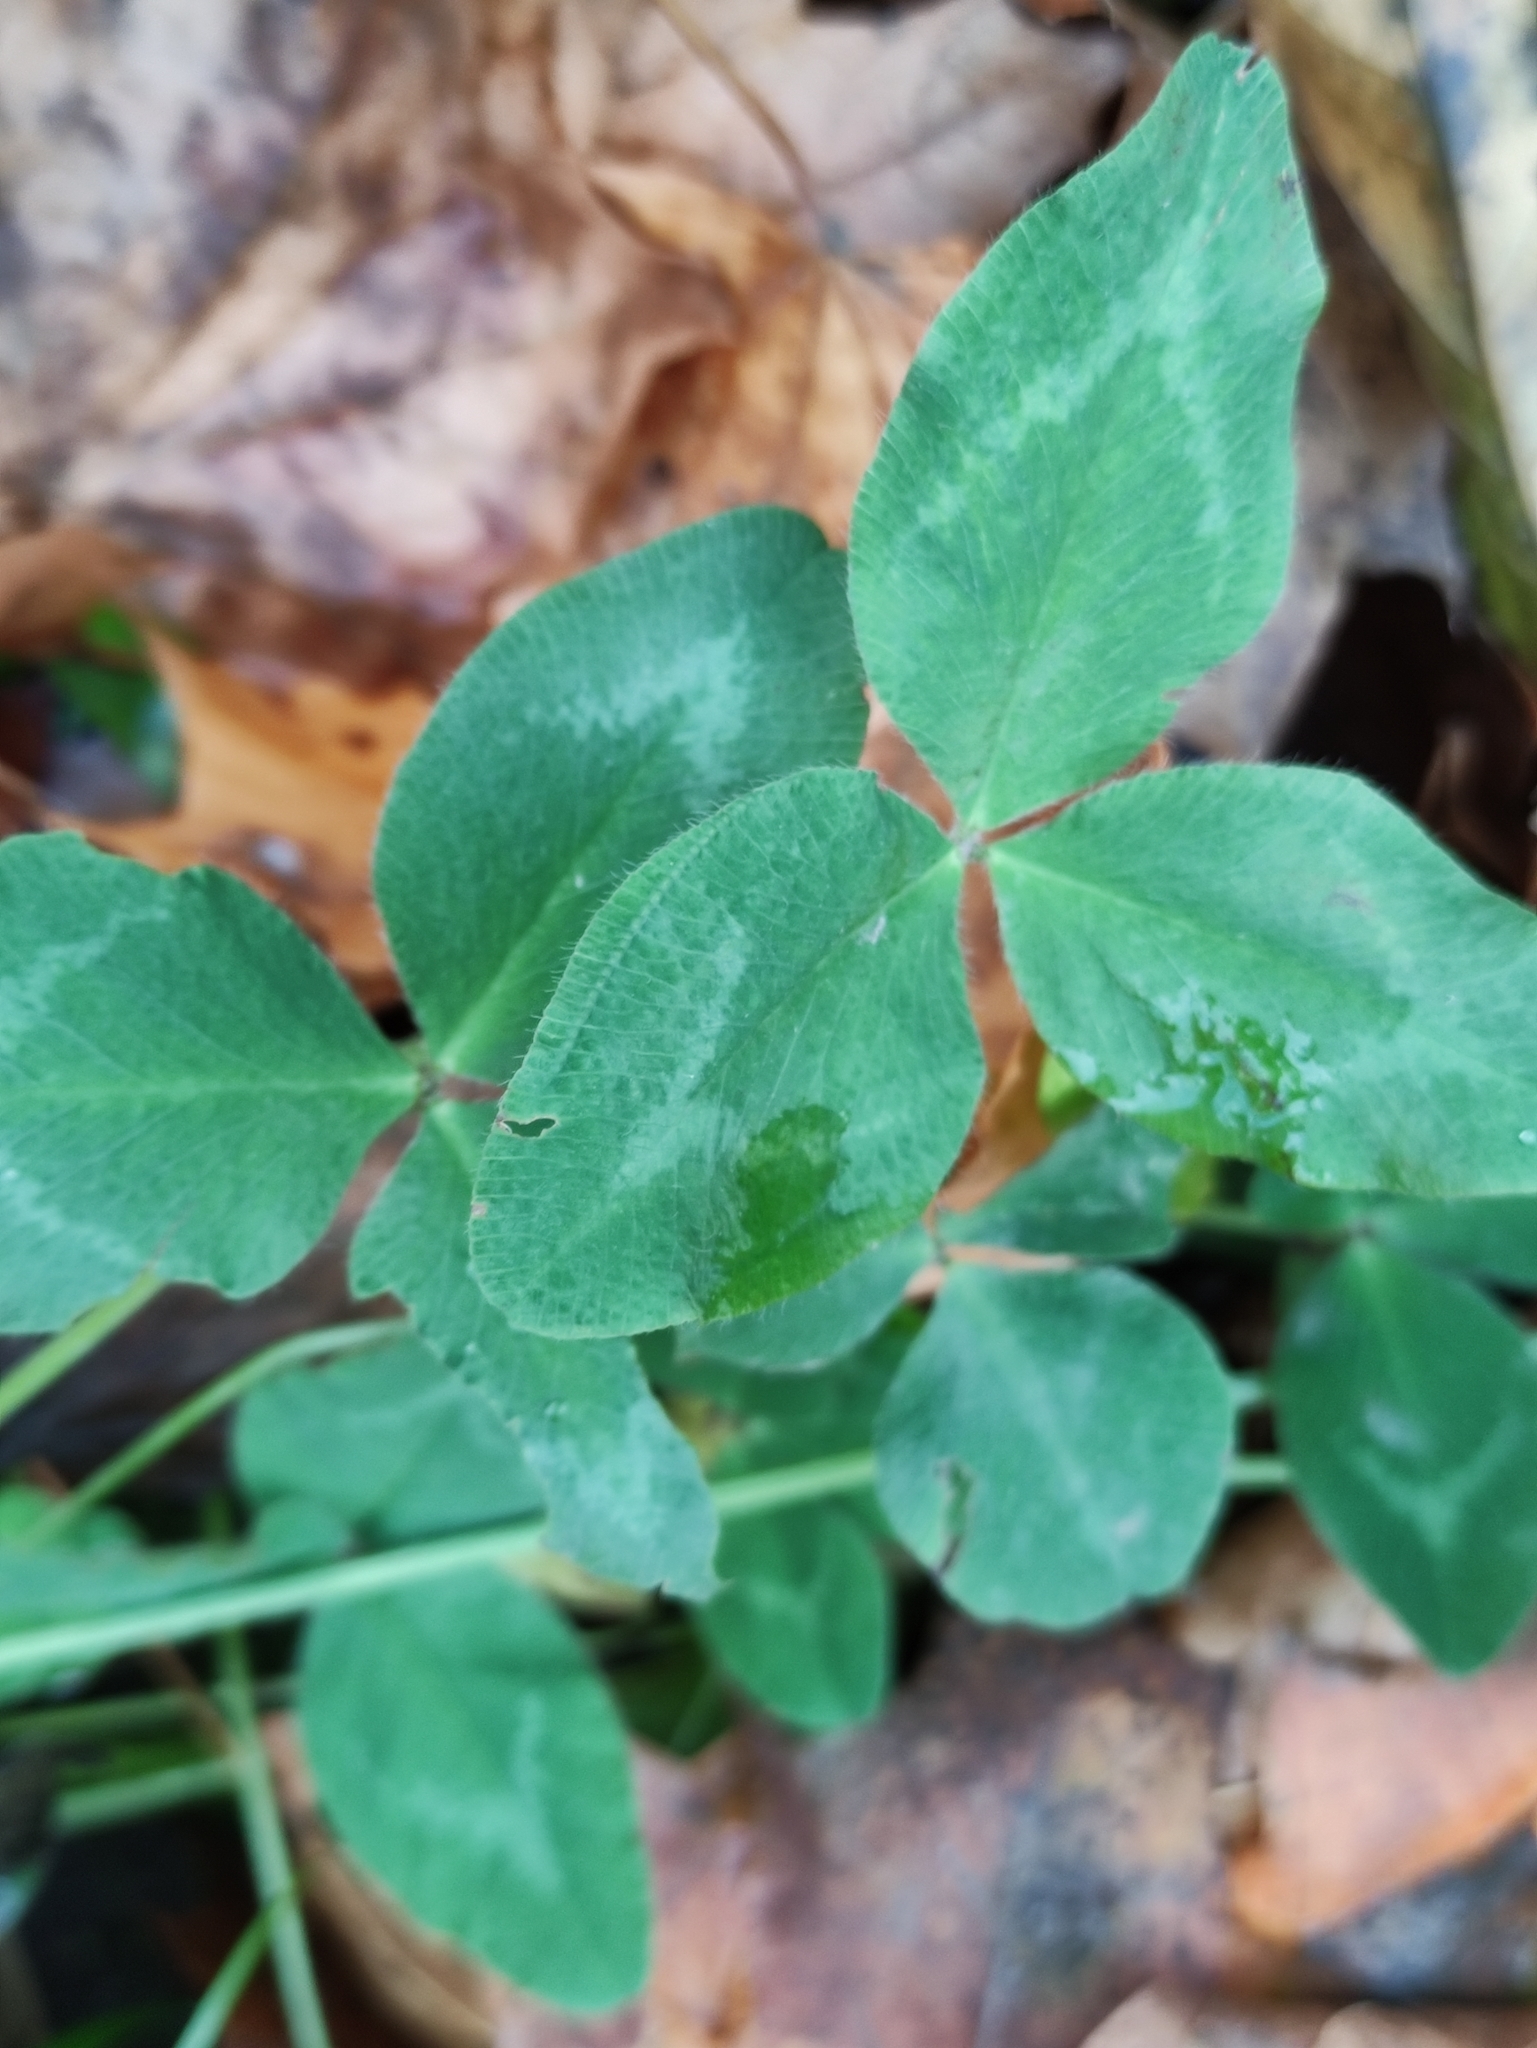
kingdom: Plantae
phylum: Tracheophyta
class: Magnoliopsida
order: Fabales
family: Fabaceae
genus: Trifolium
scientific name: Trifolium pratense
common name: Red clover
